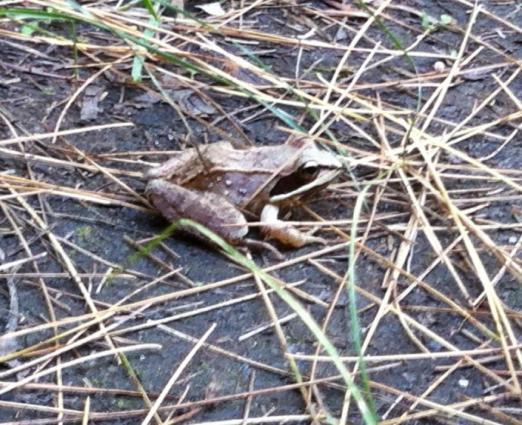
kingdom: Animalia
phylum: Chordata
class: Amphibia
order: Anura
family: Ranidae
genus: Lithobates
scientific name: Lithobates sylvaticus
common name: Wood frog
